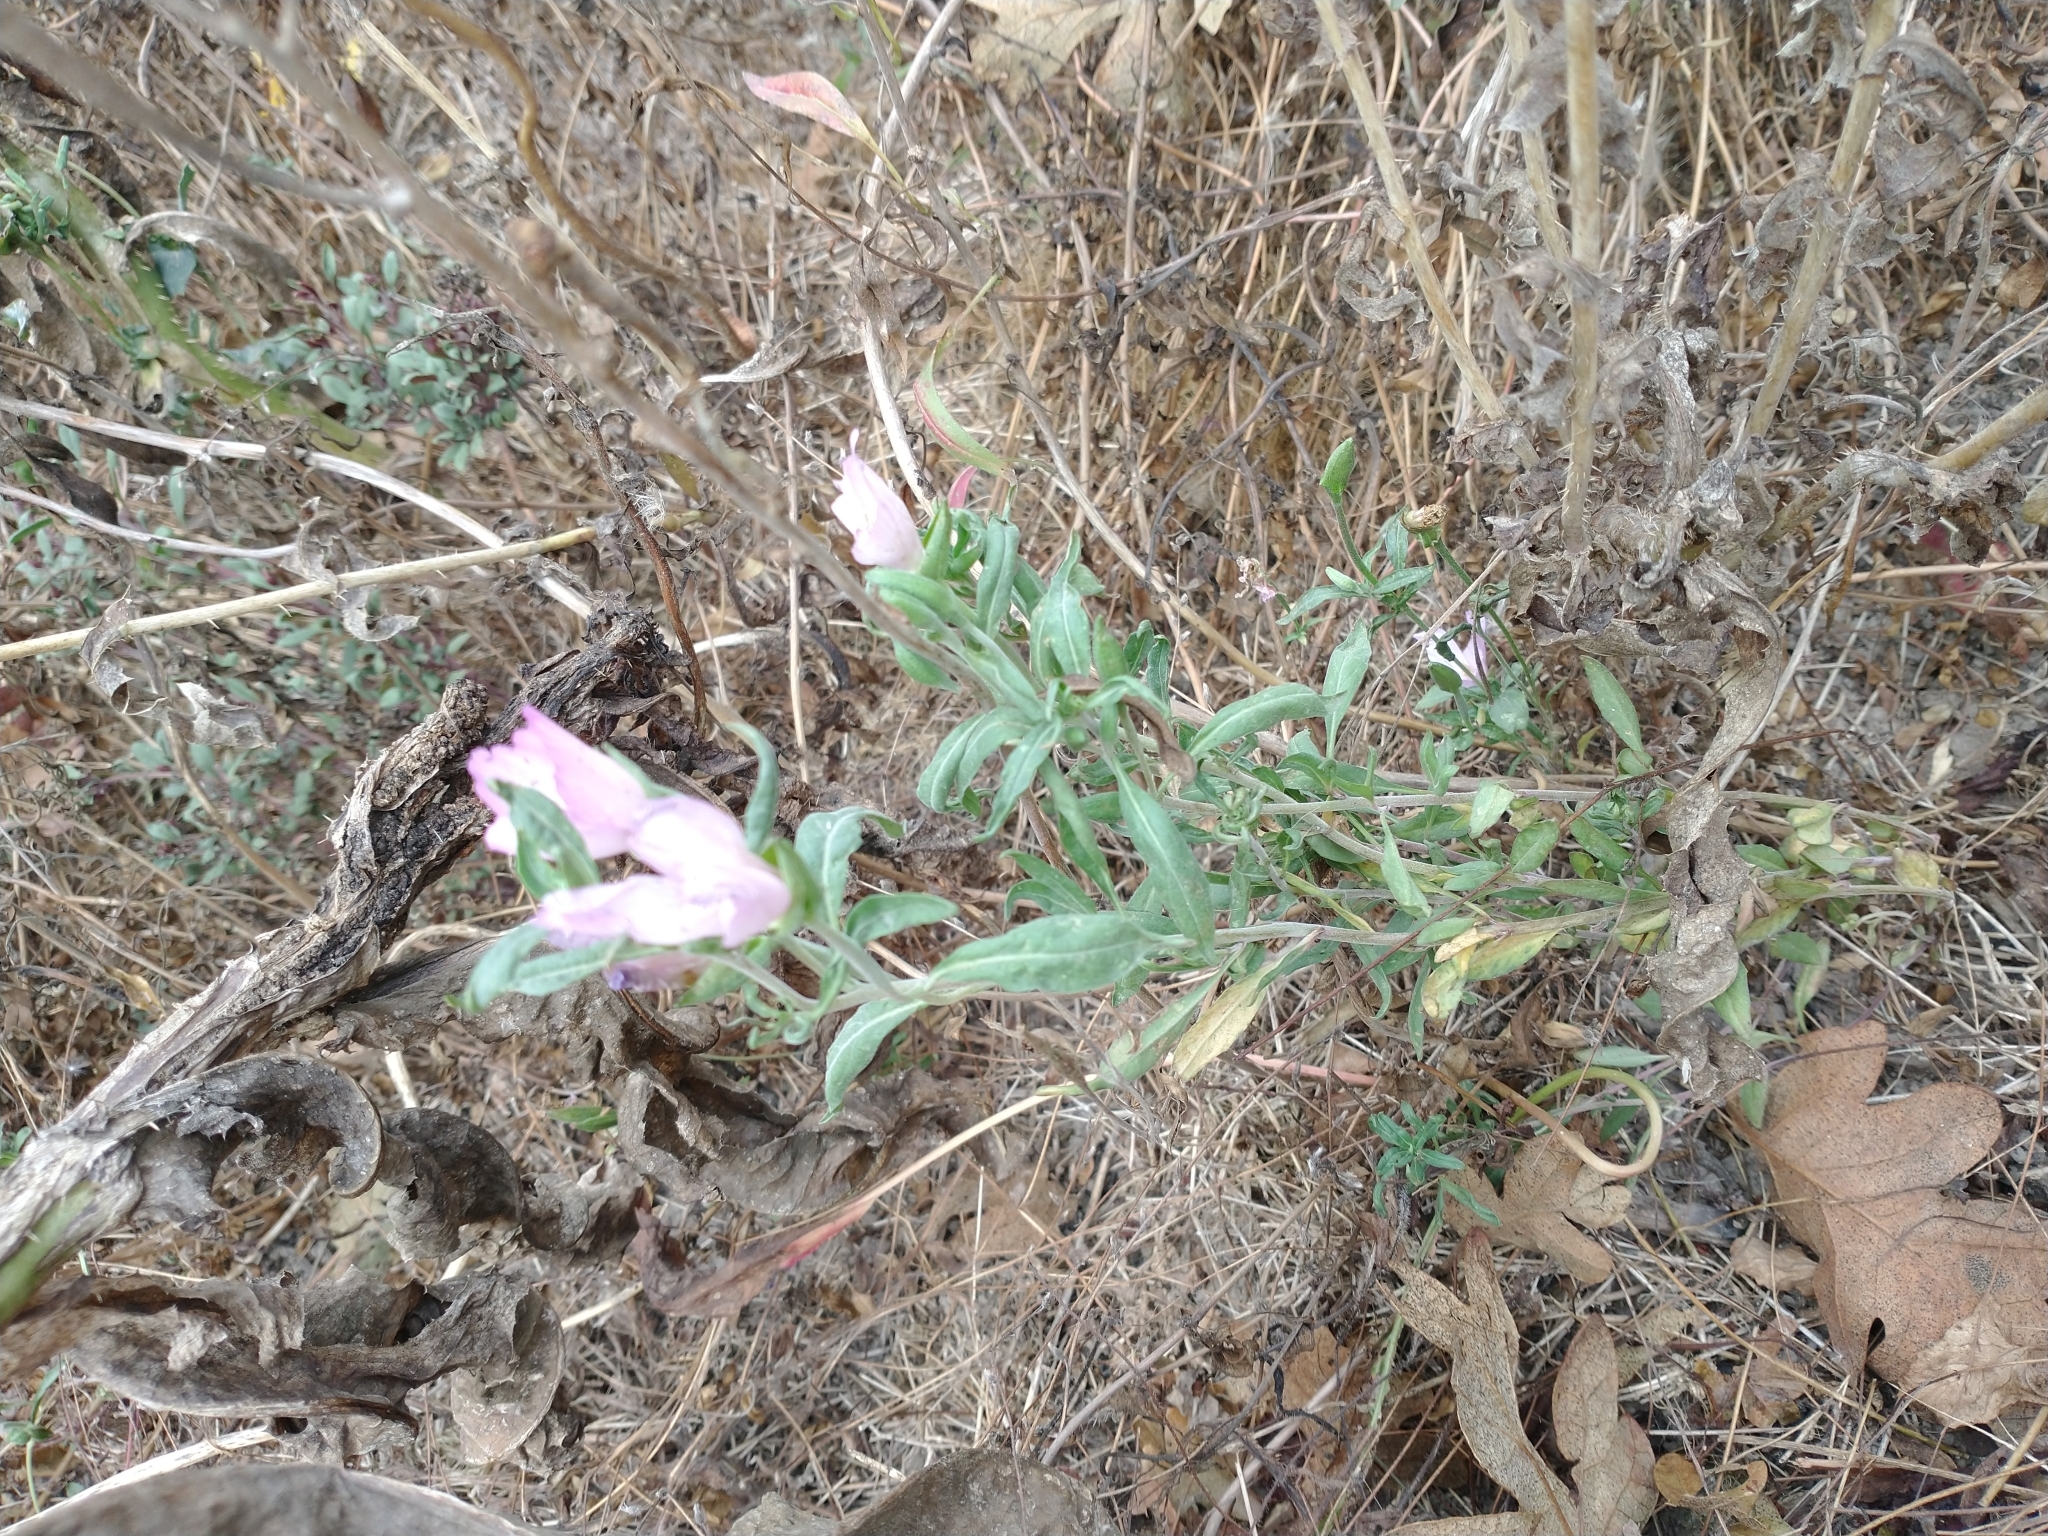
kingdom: Plantae
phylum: Tracheophyta
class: Magnoliopsida
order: Myrtales
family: Onagraceae
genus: Clarkia
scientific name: Clarkia amoena
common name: Godetia
